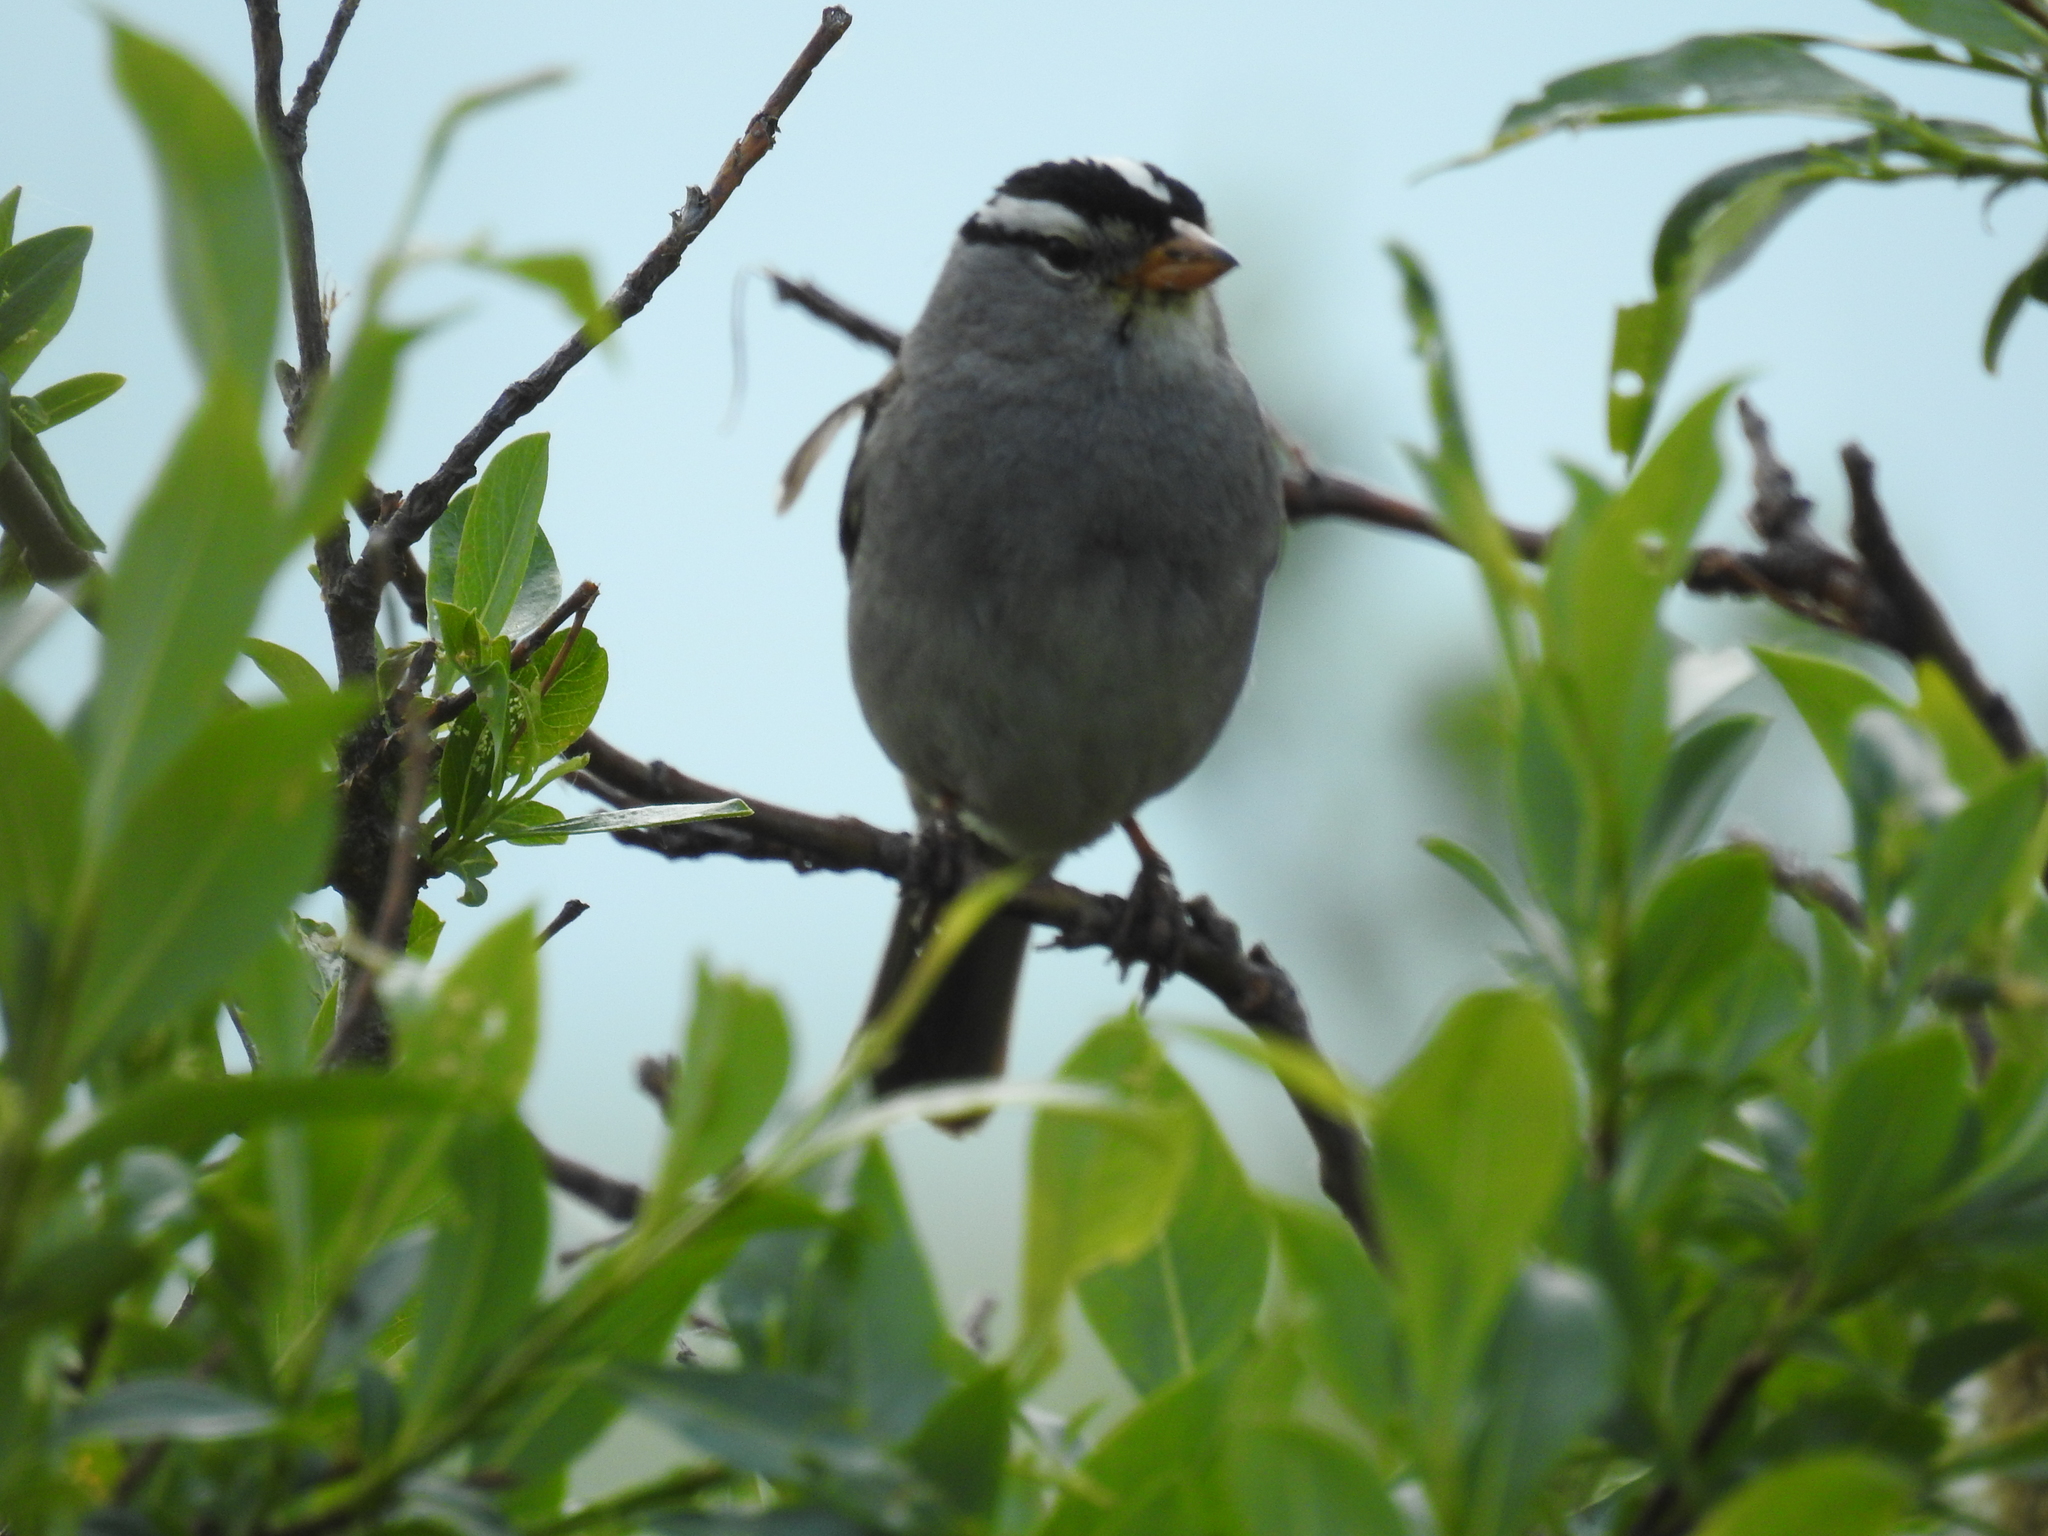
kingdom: Animalia
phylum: Chordata
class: Aves
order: Passeriformes
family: Passerellidae
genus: Zonotrichia
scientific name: Zonotrichia leucophrys
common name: White-crowned sparrow
